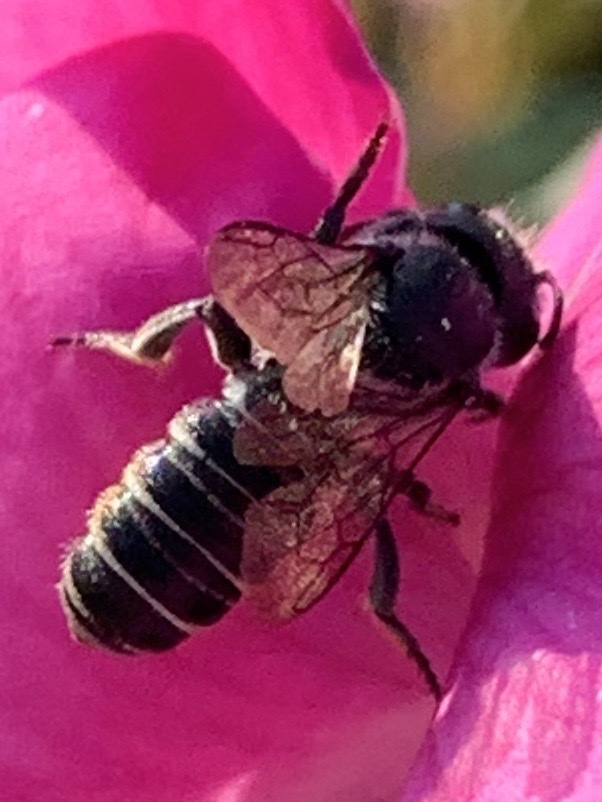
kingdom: Animalia
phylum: Arthropoda
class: Insecta
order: Hymenoptera
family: Megachilidae
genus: Megachile
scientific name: Megachile angelarum
